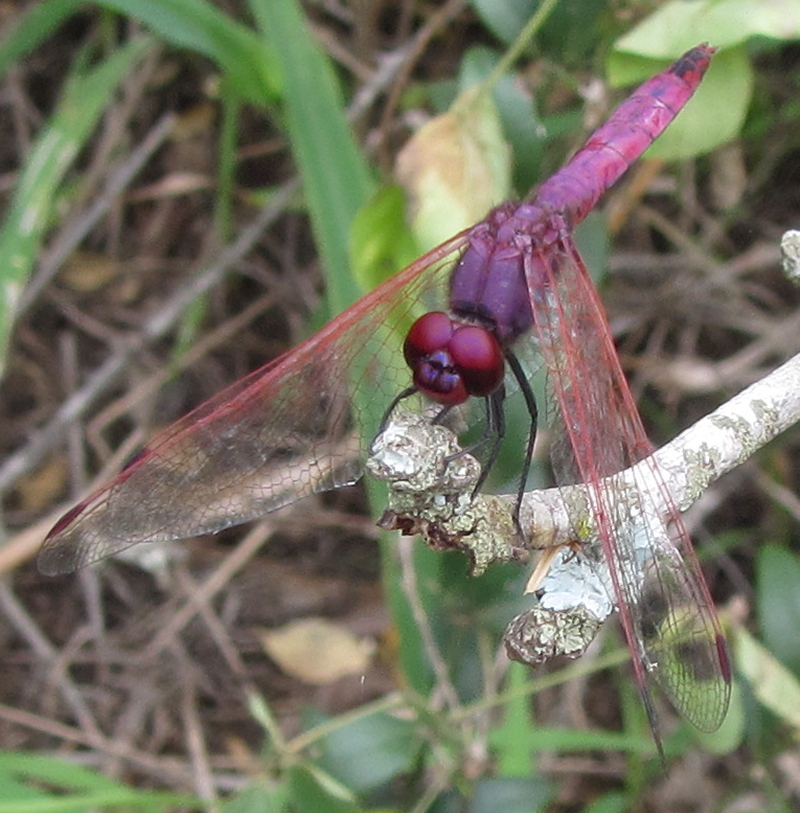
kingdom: Animalia
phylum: Arthropoda
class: Insecta
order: Odonata
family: Libellulidae
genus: Trithemis
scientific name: Trithemis annulata
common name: Violet dropwing
